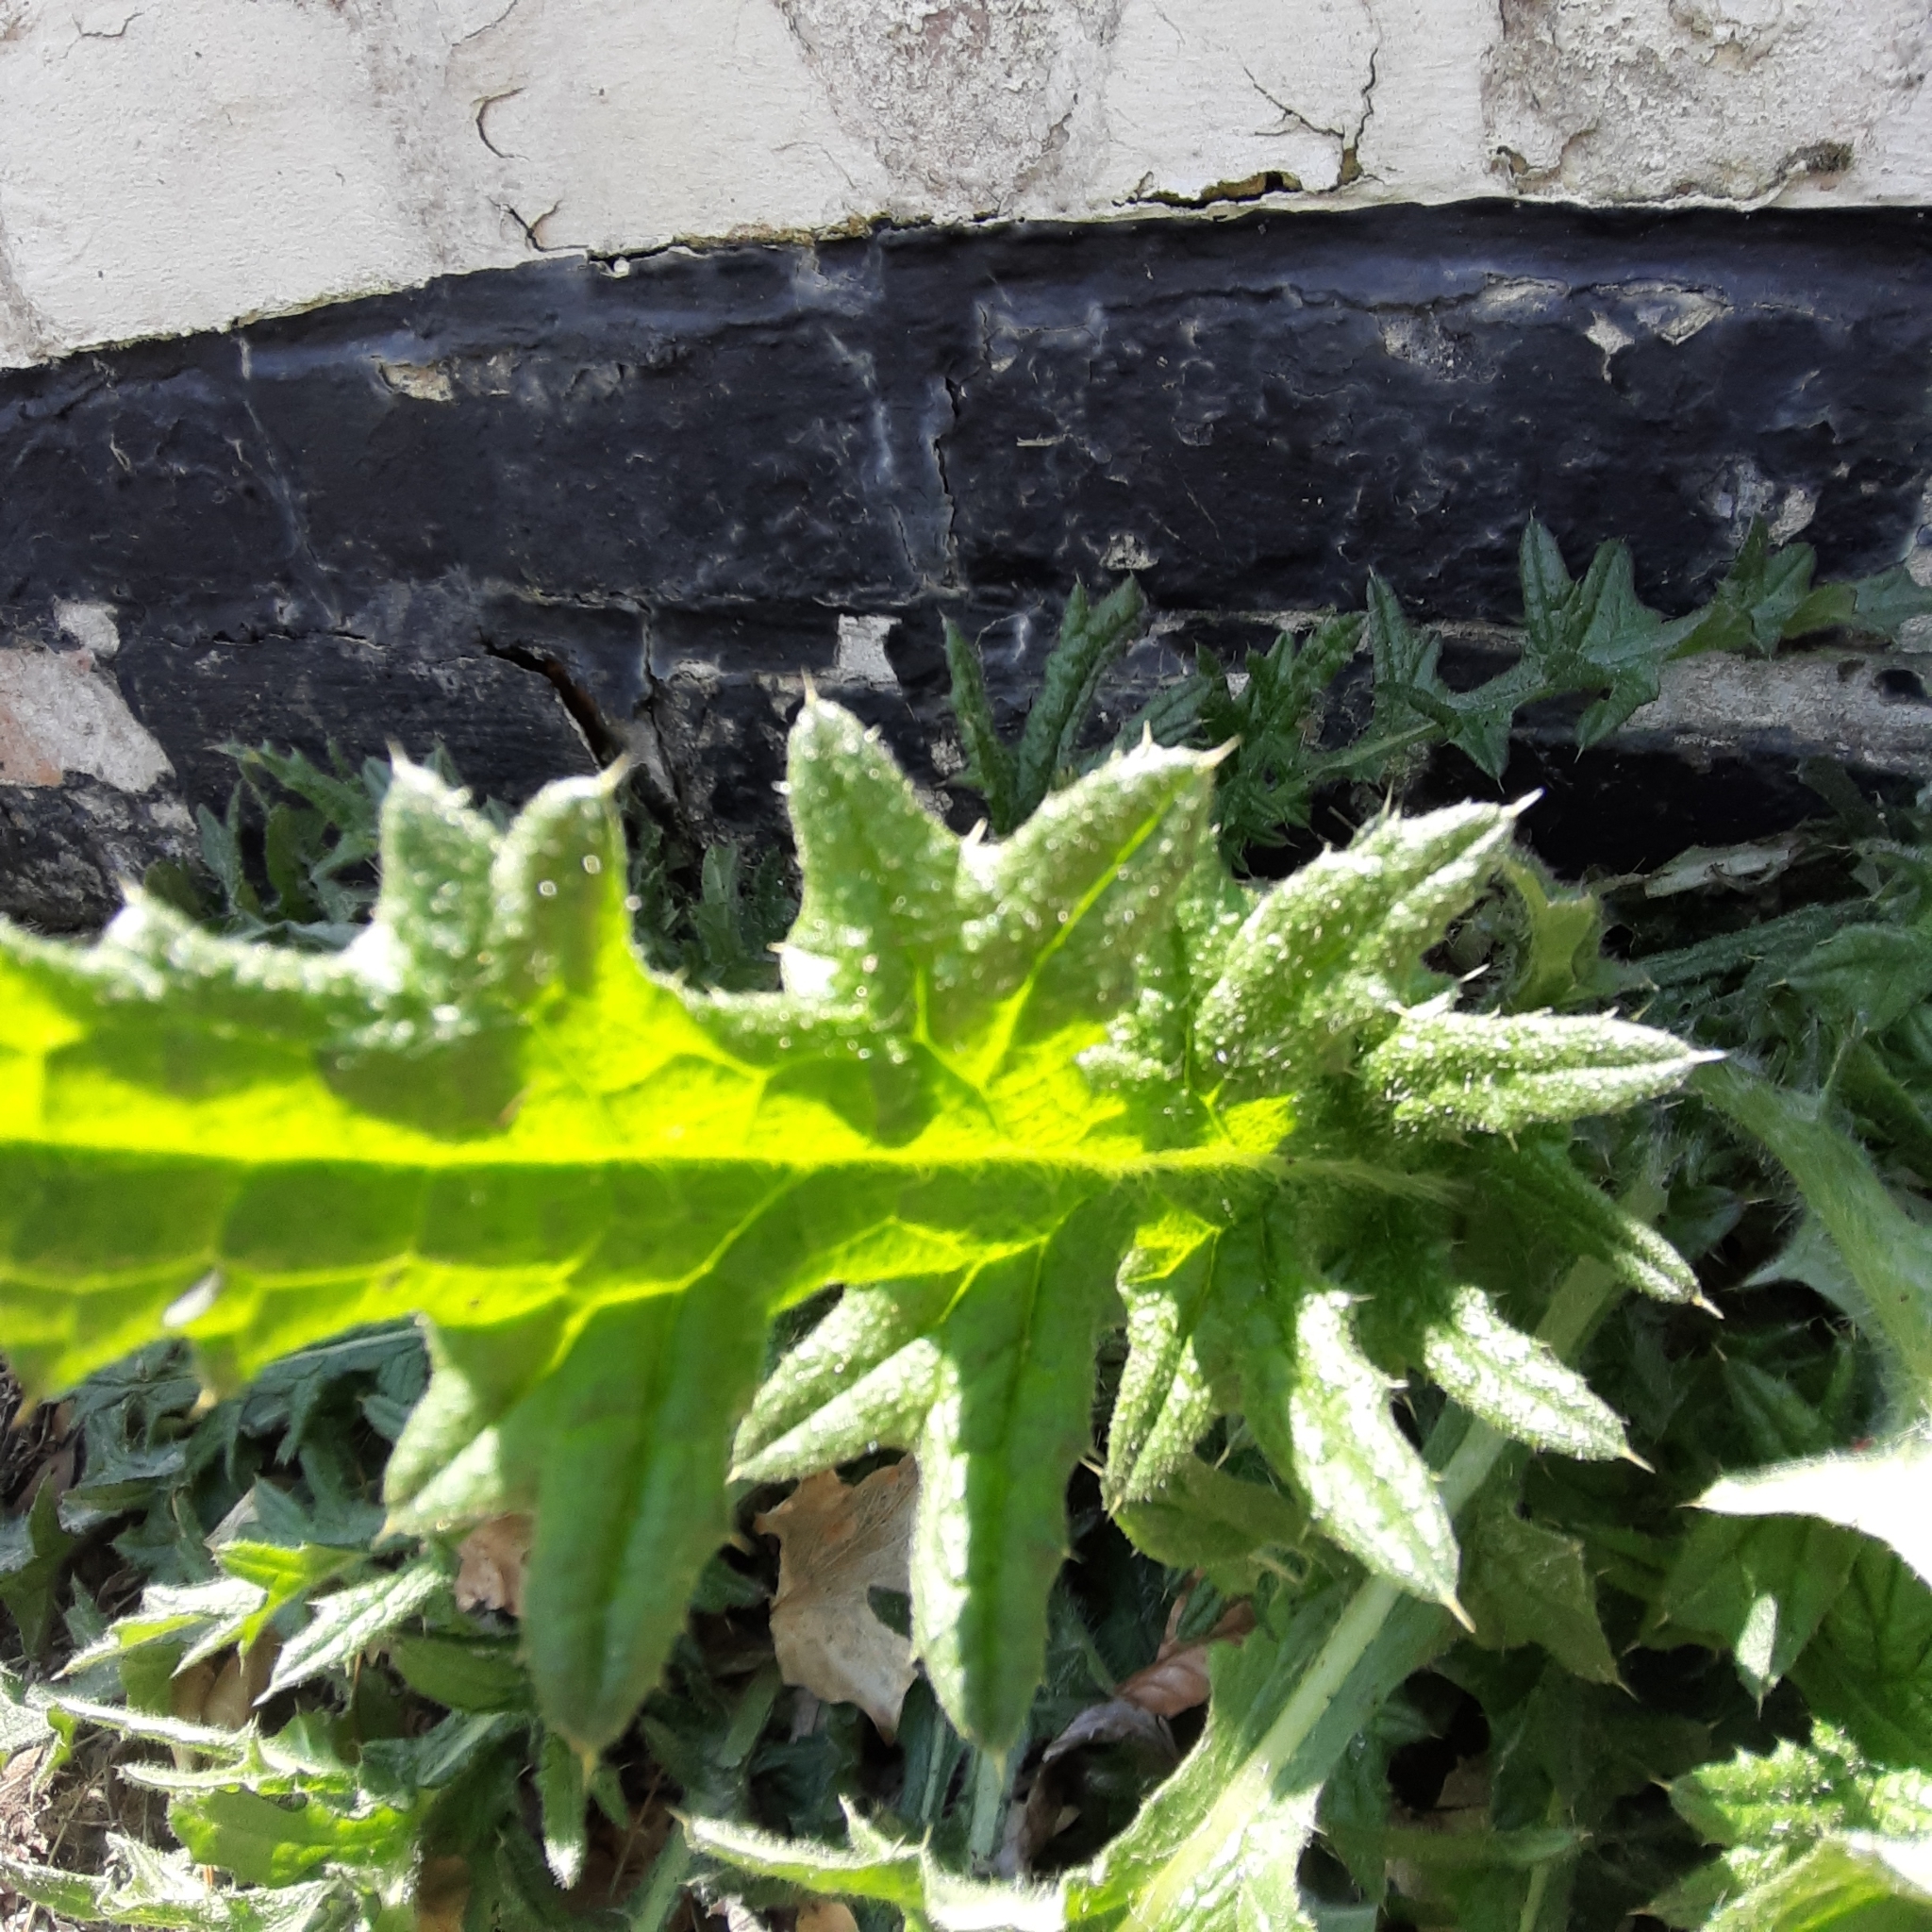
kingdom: Plantae
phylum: Tracheophyta
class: Magnoliopsida
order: Asterales
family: Asteraceae
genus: Cirsium
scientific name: Cirsium vulgare
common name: Bull thistle
